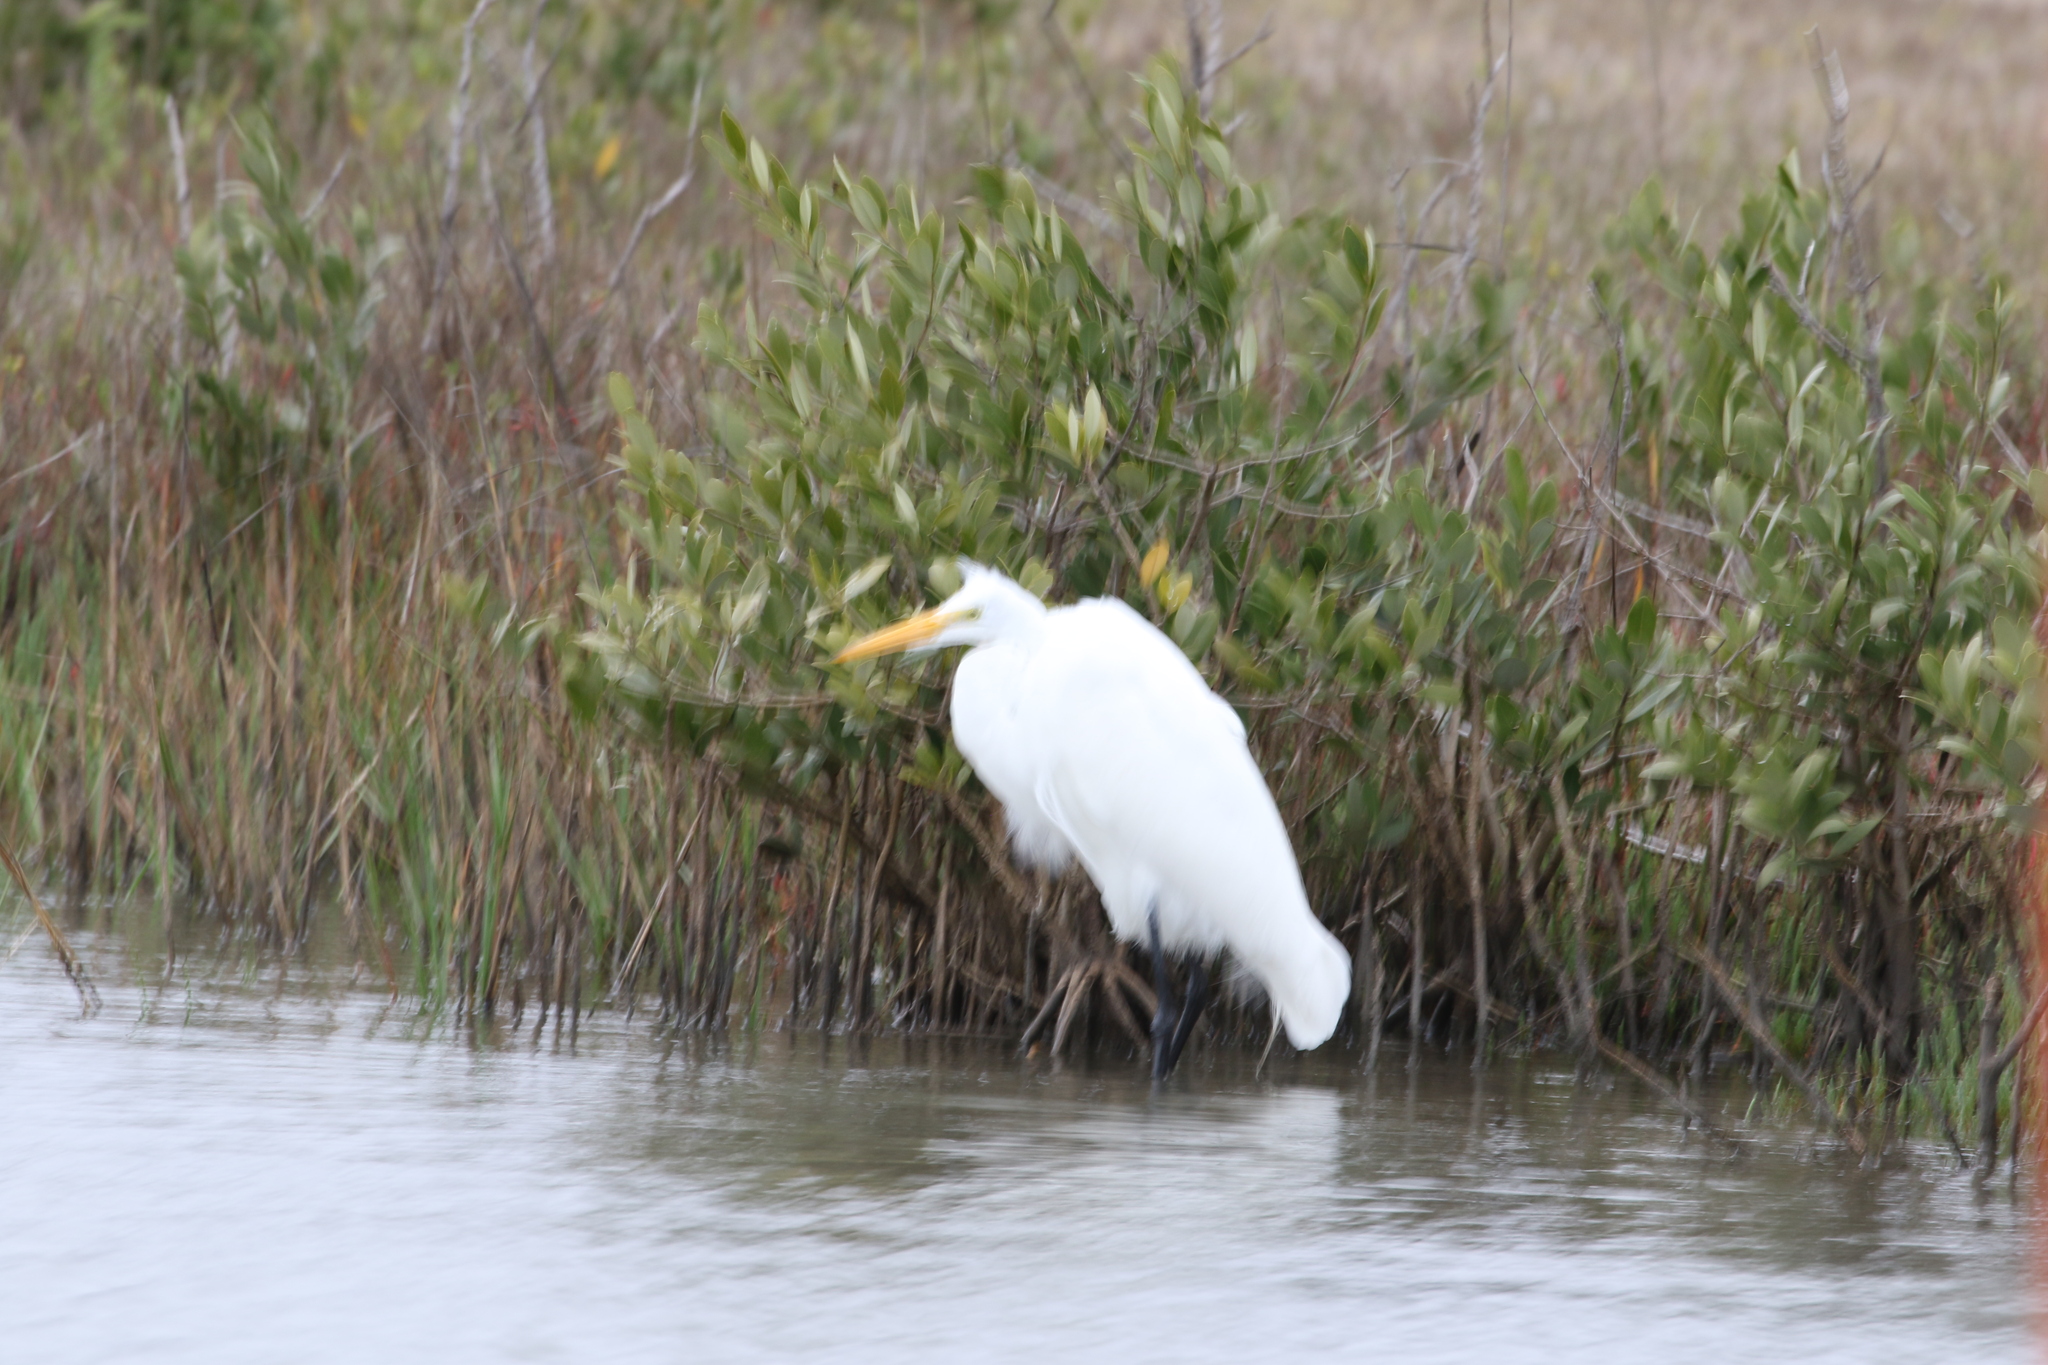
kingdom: Animalia
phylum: Chordata
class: Aves
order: Pelecaniformes
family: Ardeidae
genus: Ardea
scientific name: Ardea alba
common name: Great egret
